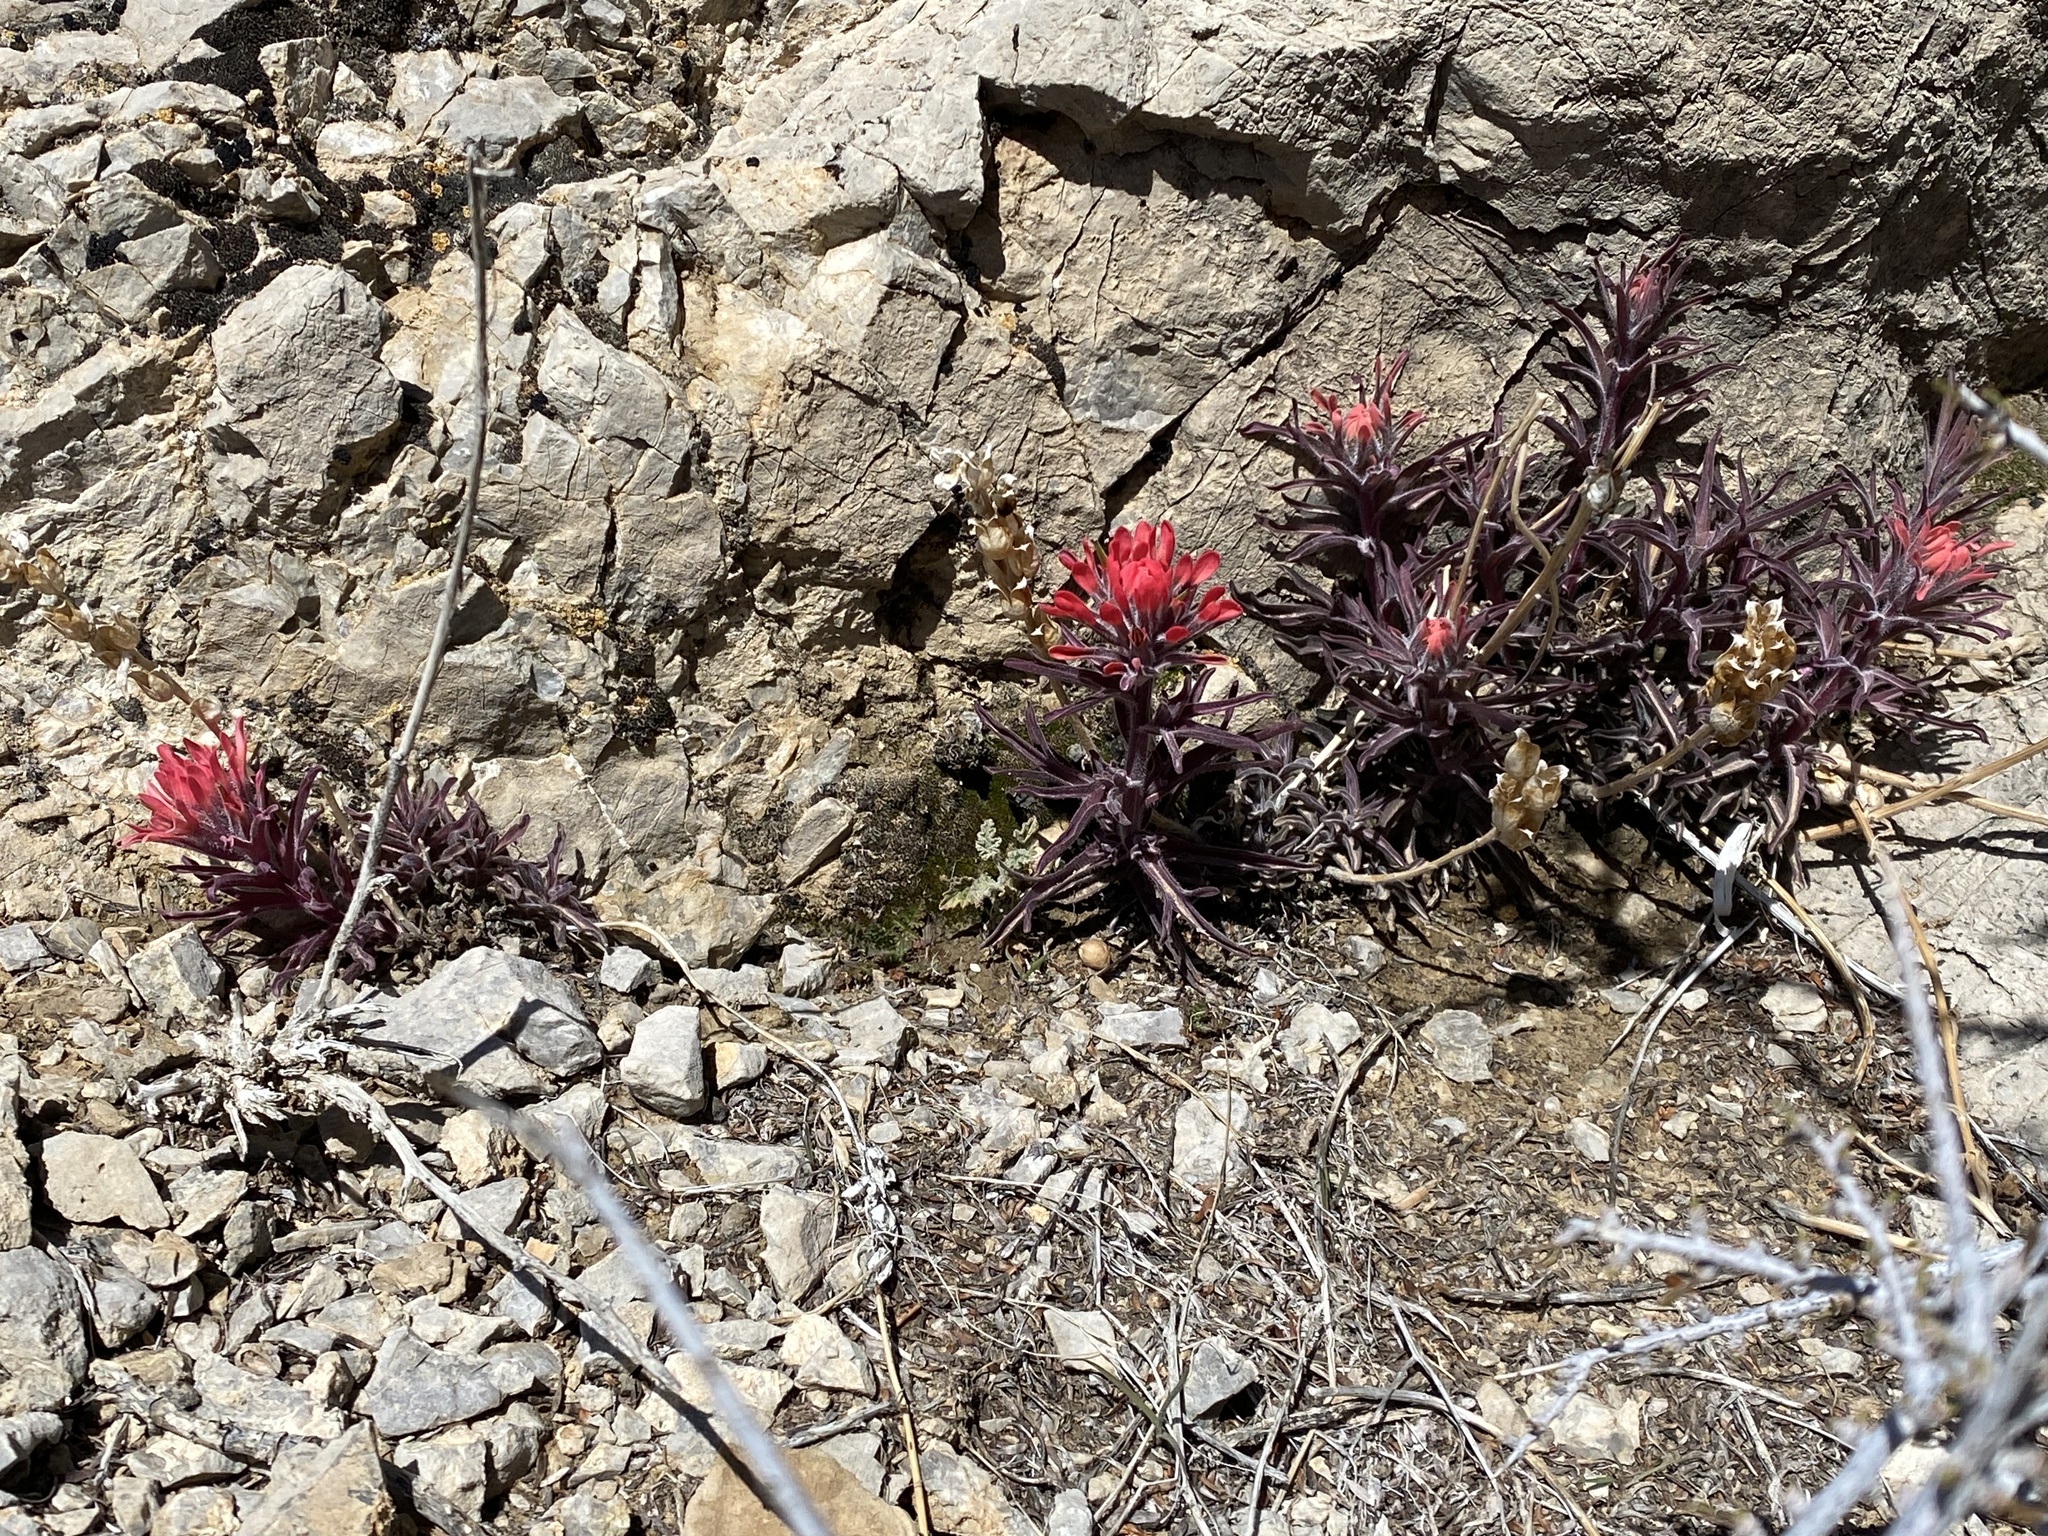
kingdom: Plantae
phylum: Tracheophyta
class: Magnoliopsida
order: Lamiales
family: Orobanchaceae
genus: Castilleja
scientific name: Castilleja chromosa
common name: Desert paintbrush
